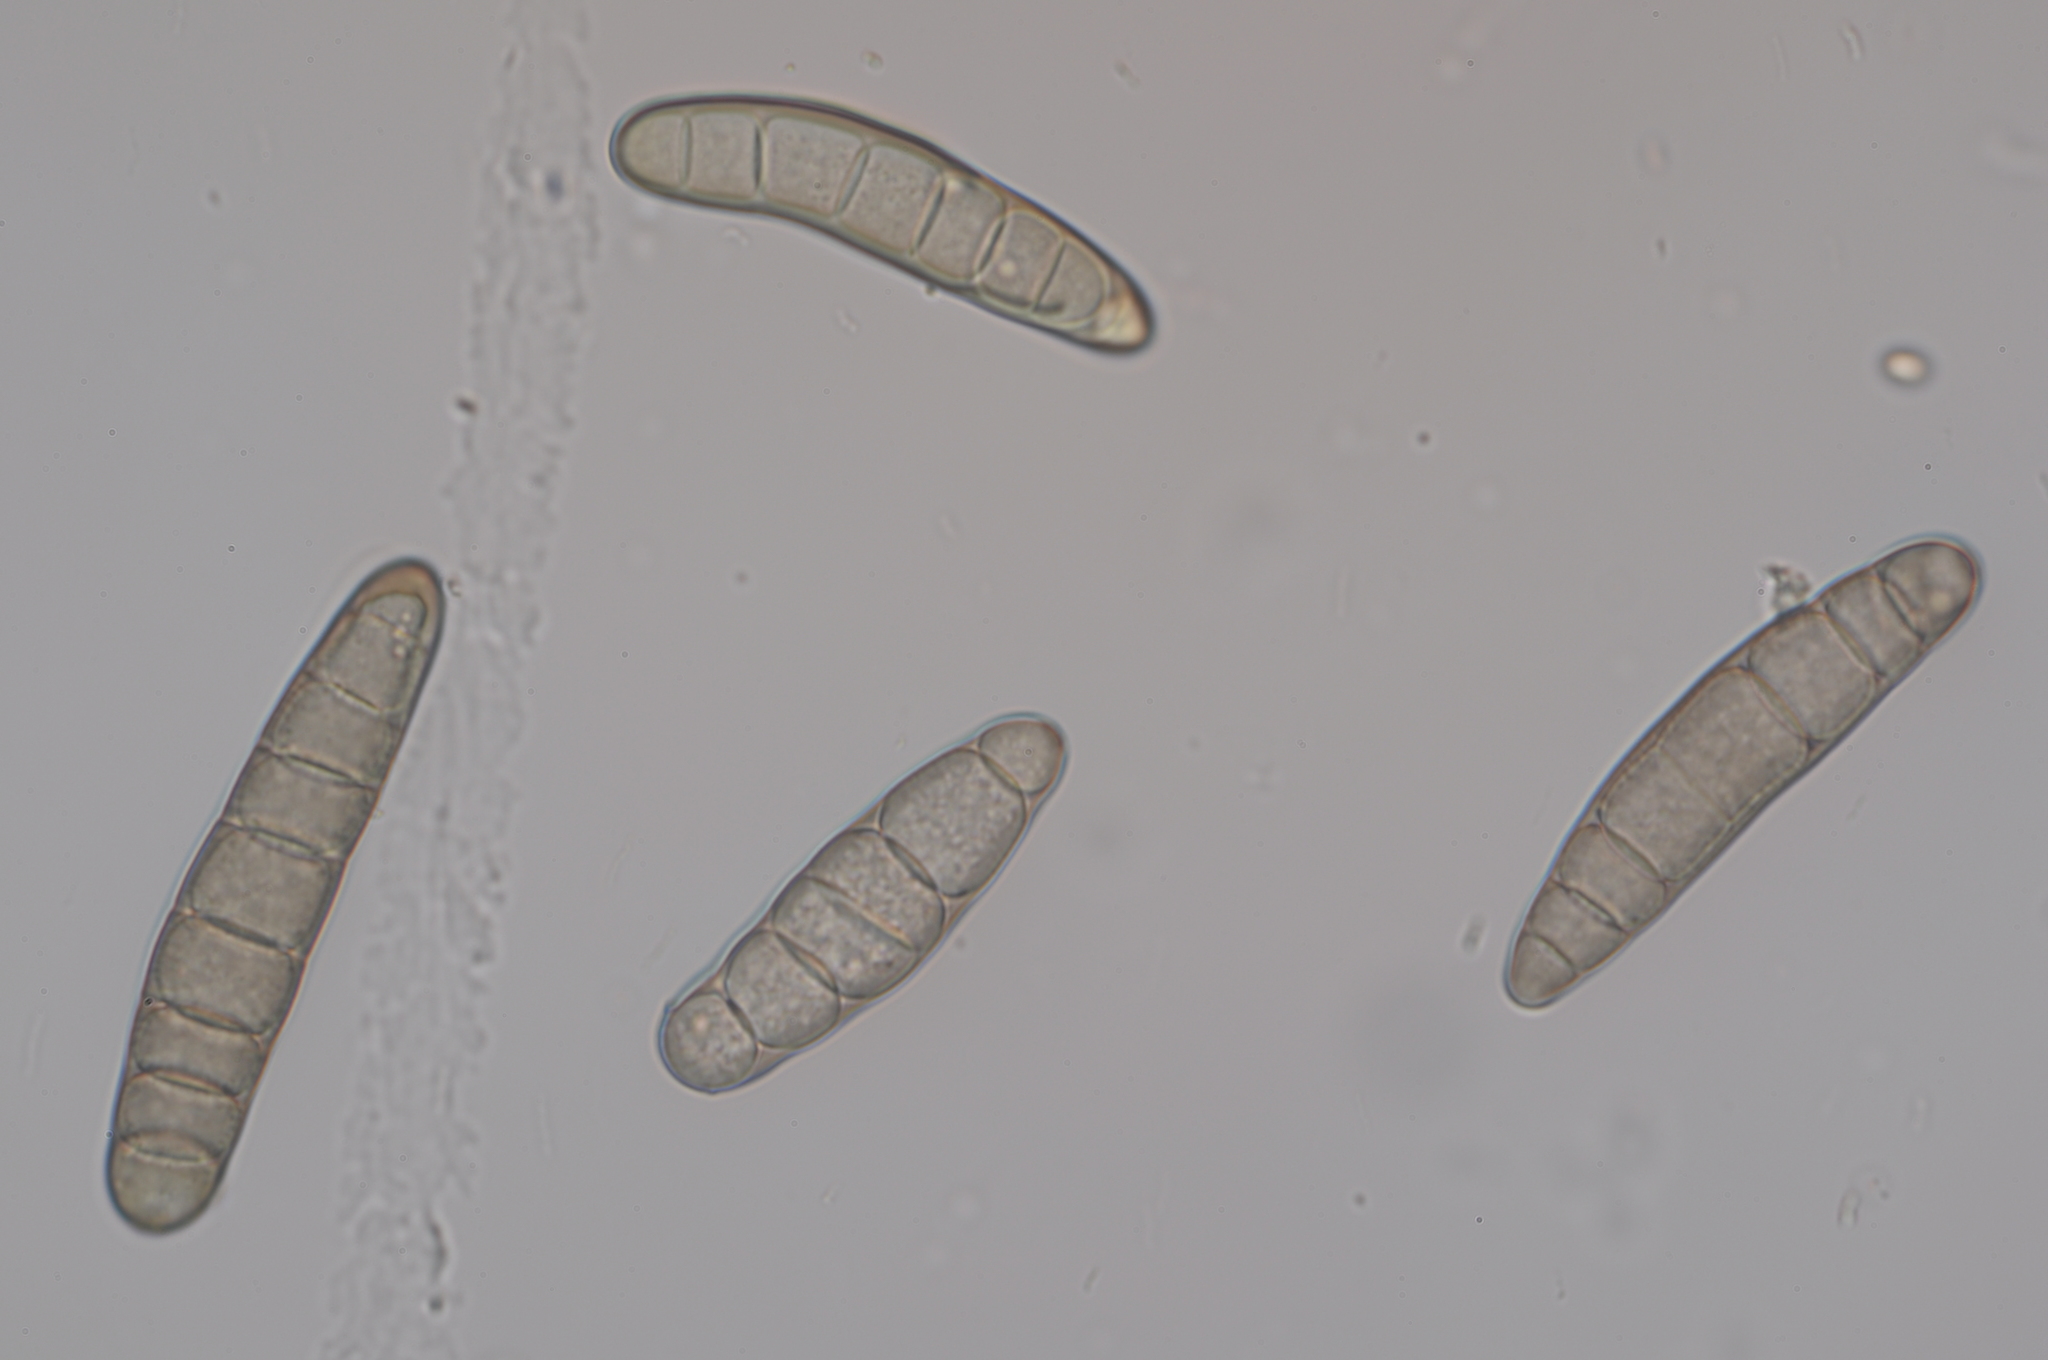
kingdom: Fungi
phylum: Ascomycota
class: Dothideomycetes
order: Pleosporales
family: Pleosporaceae
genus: Bipolaris
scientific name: Bipolaris sorokiniana
